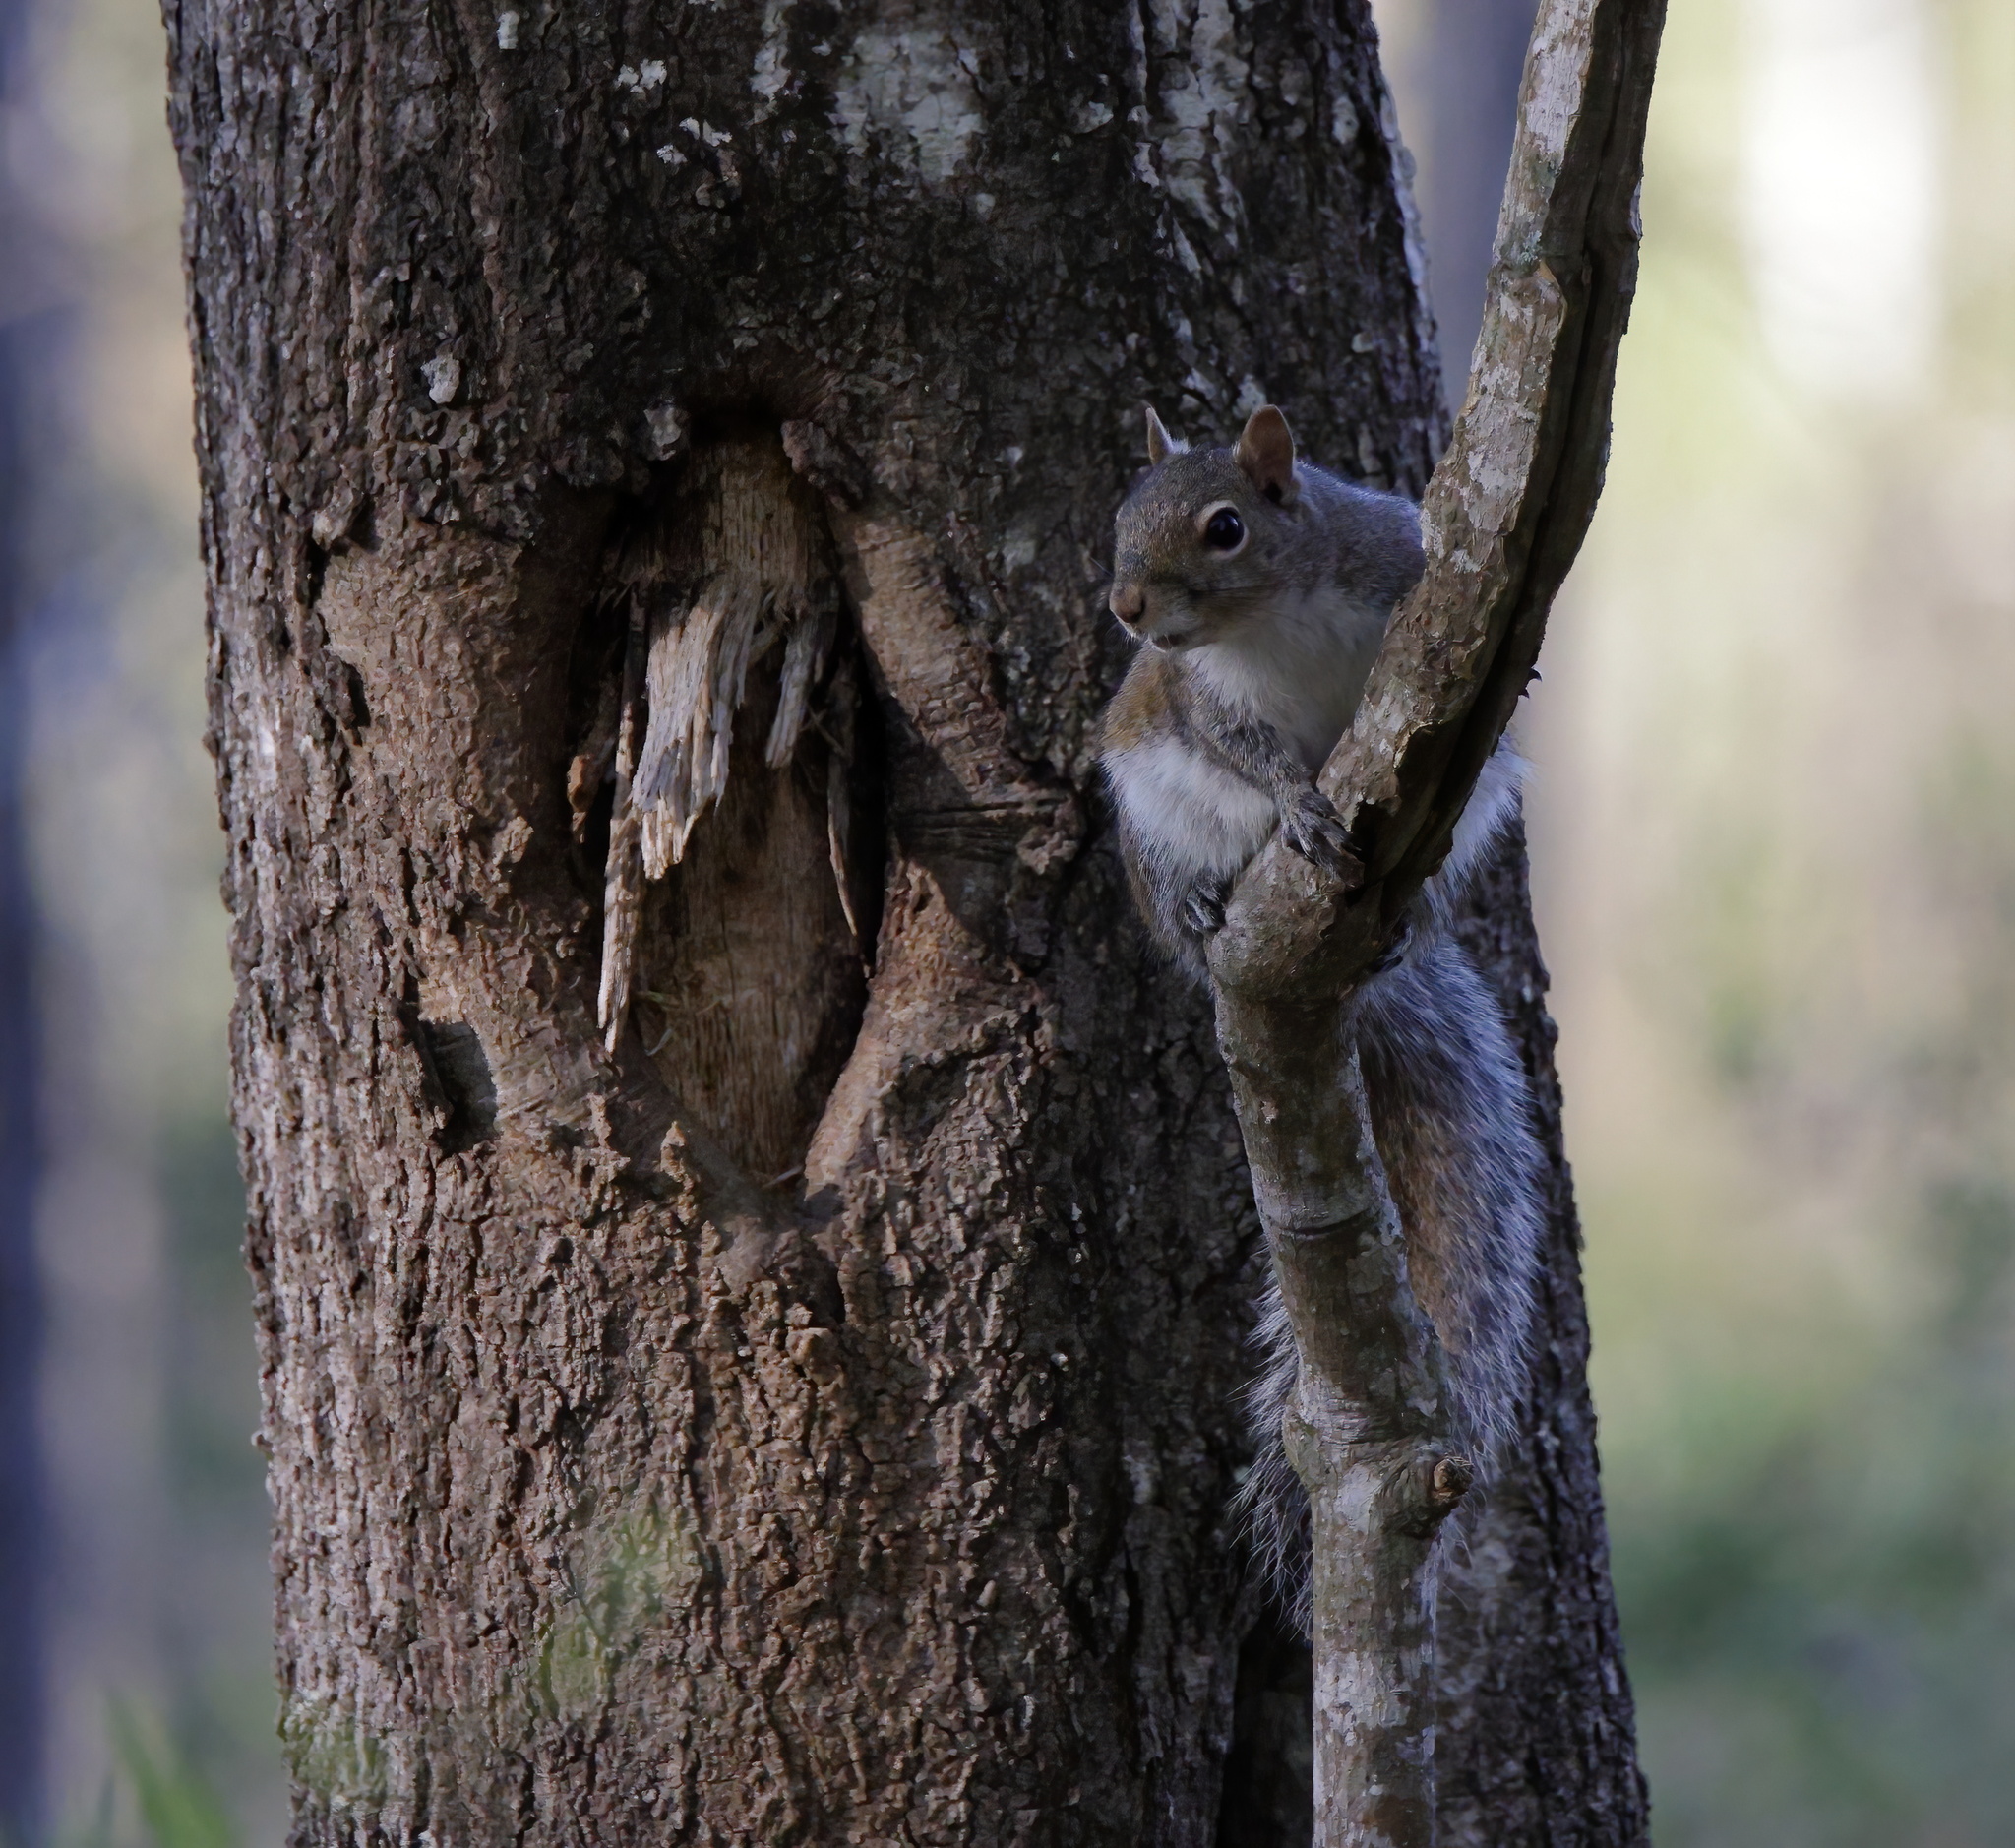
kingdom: Animalia
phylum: Chordata
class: Mammalia
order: Rodentia
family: Sciuridae
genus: Sciurus
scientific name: Sciurus carolinensis
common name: Eastern gray squirrel
